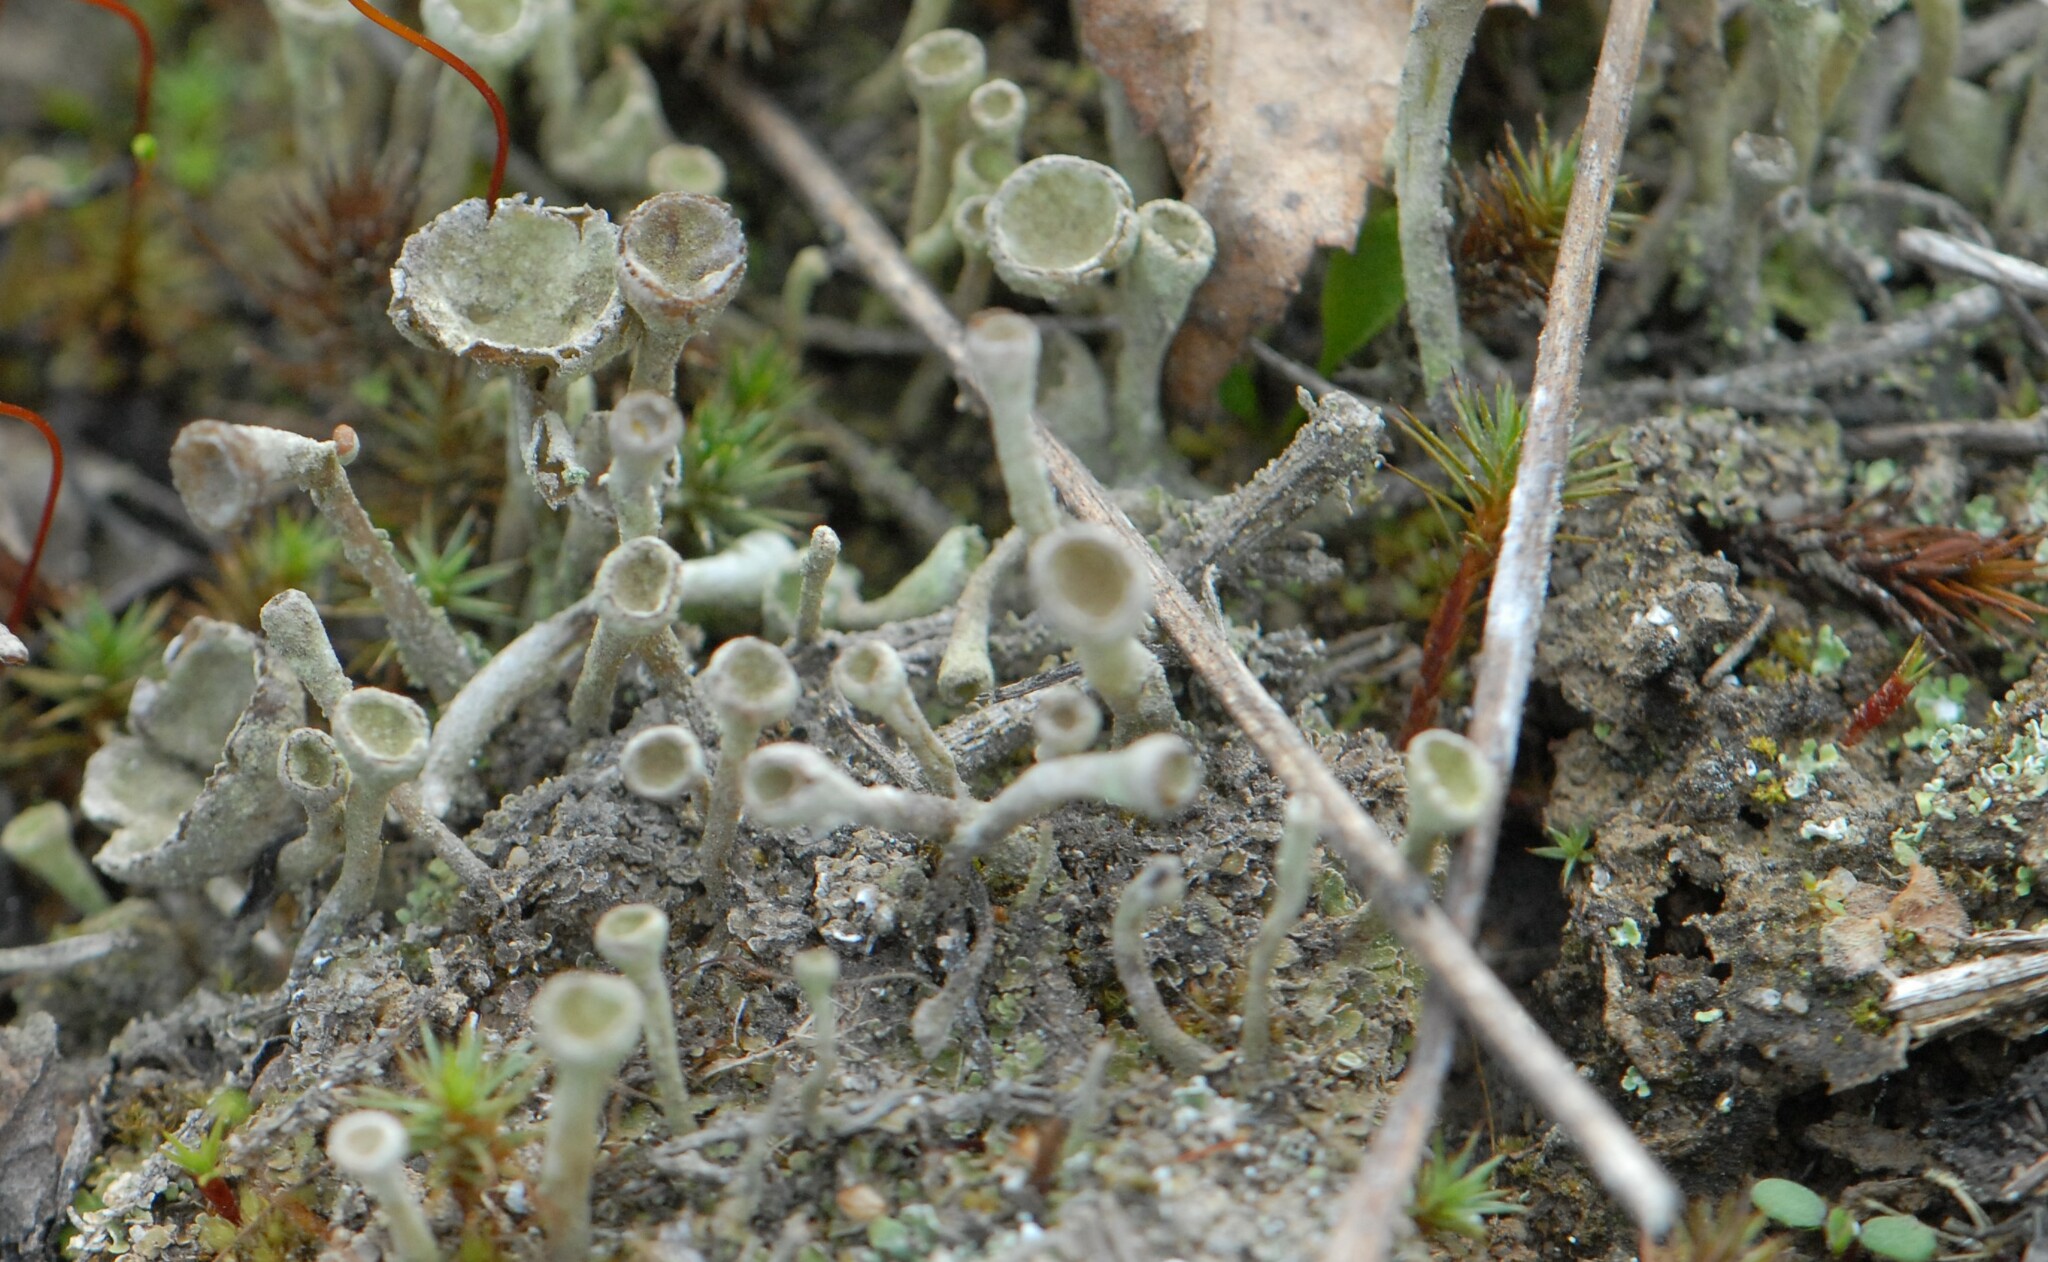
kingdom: Fungi
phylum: Ascomycota
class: Lecanoromycetes
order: Lecanorales
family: Cladoniaceae
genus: Cladonia
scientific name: Cladonia fimbriata
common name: Powdered trumpet lichen
